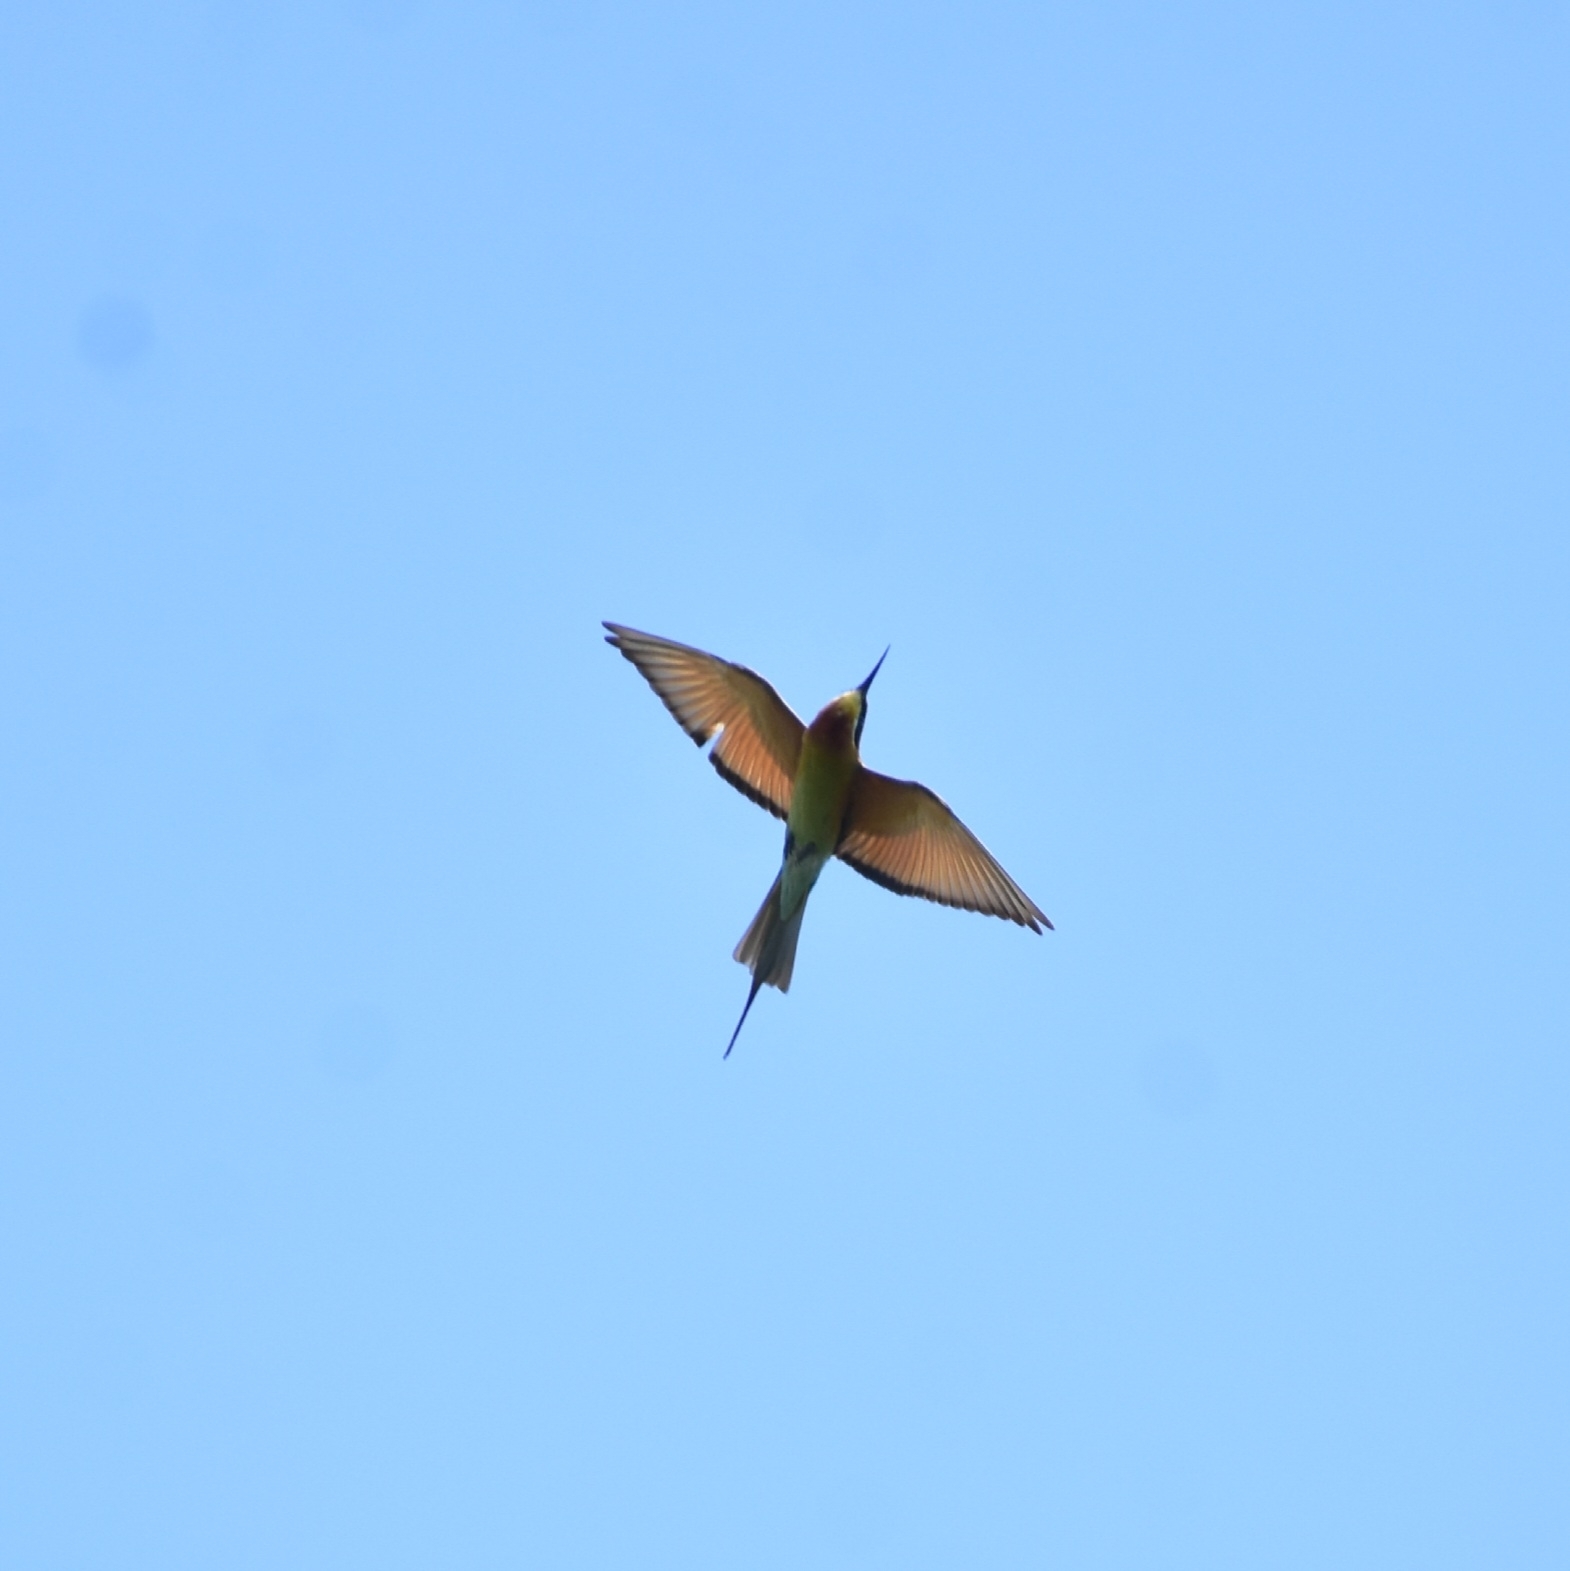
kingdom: Animalia
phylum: Chordata
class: Aves
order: Coraciiformes
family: Meropidae
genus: Merops
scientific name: Merops philippinus
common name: Blue-tailed bee-eater
